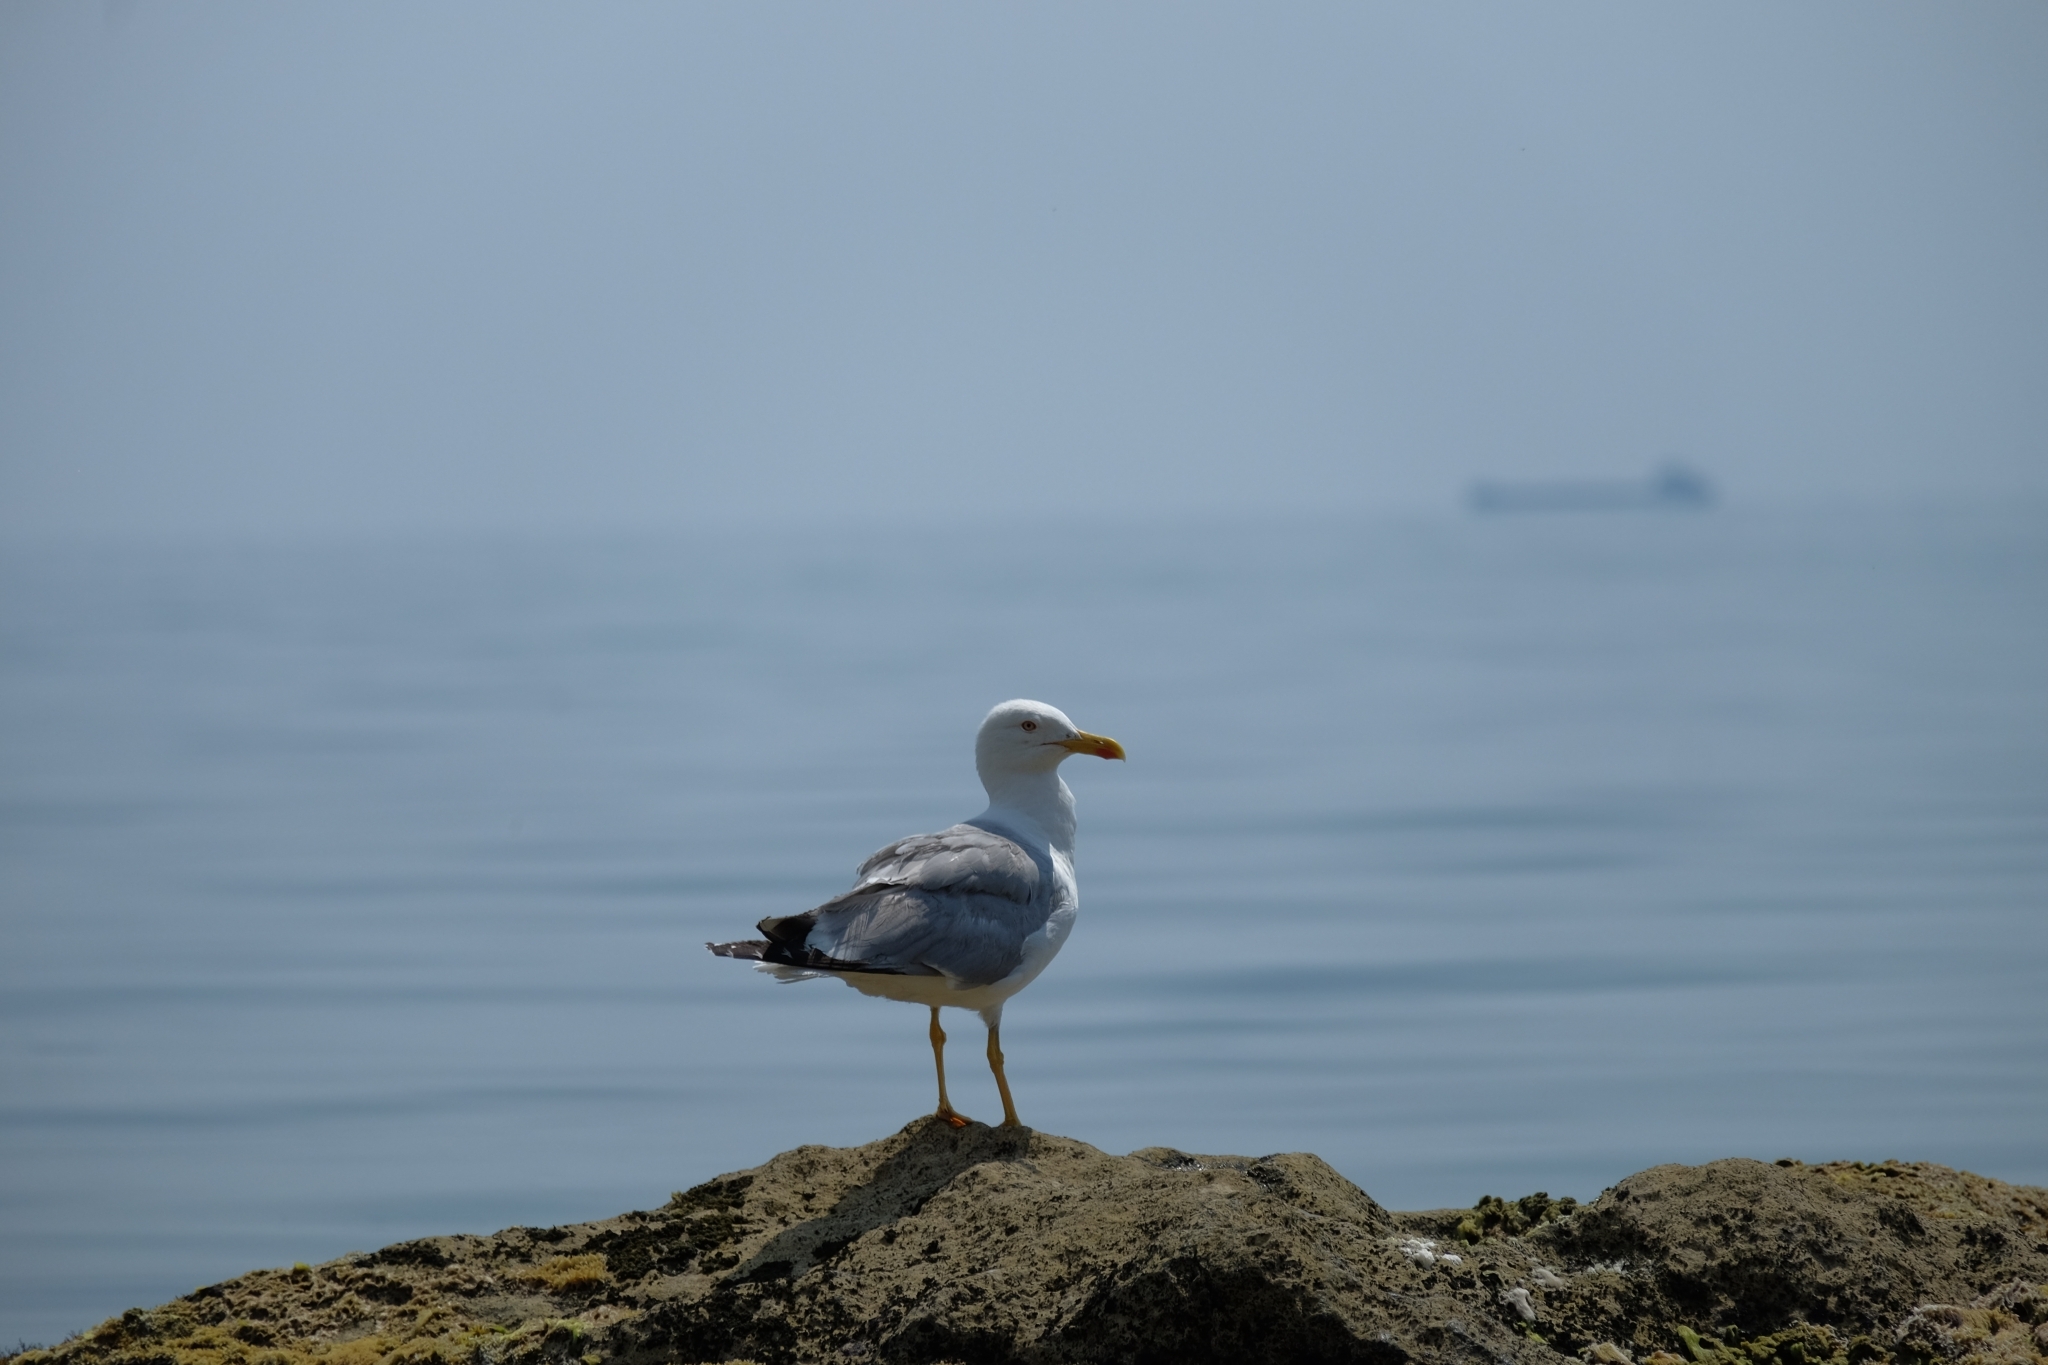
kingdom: Animalia
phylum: Chordata
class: Aves
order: Charadriiformes
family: Laridae
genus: Larus
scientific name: Larus michahellis
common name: Yellow-legged gull
